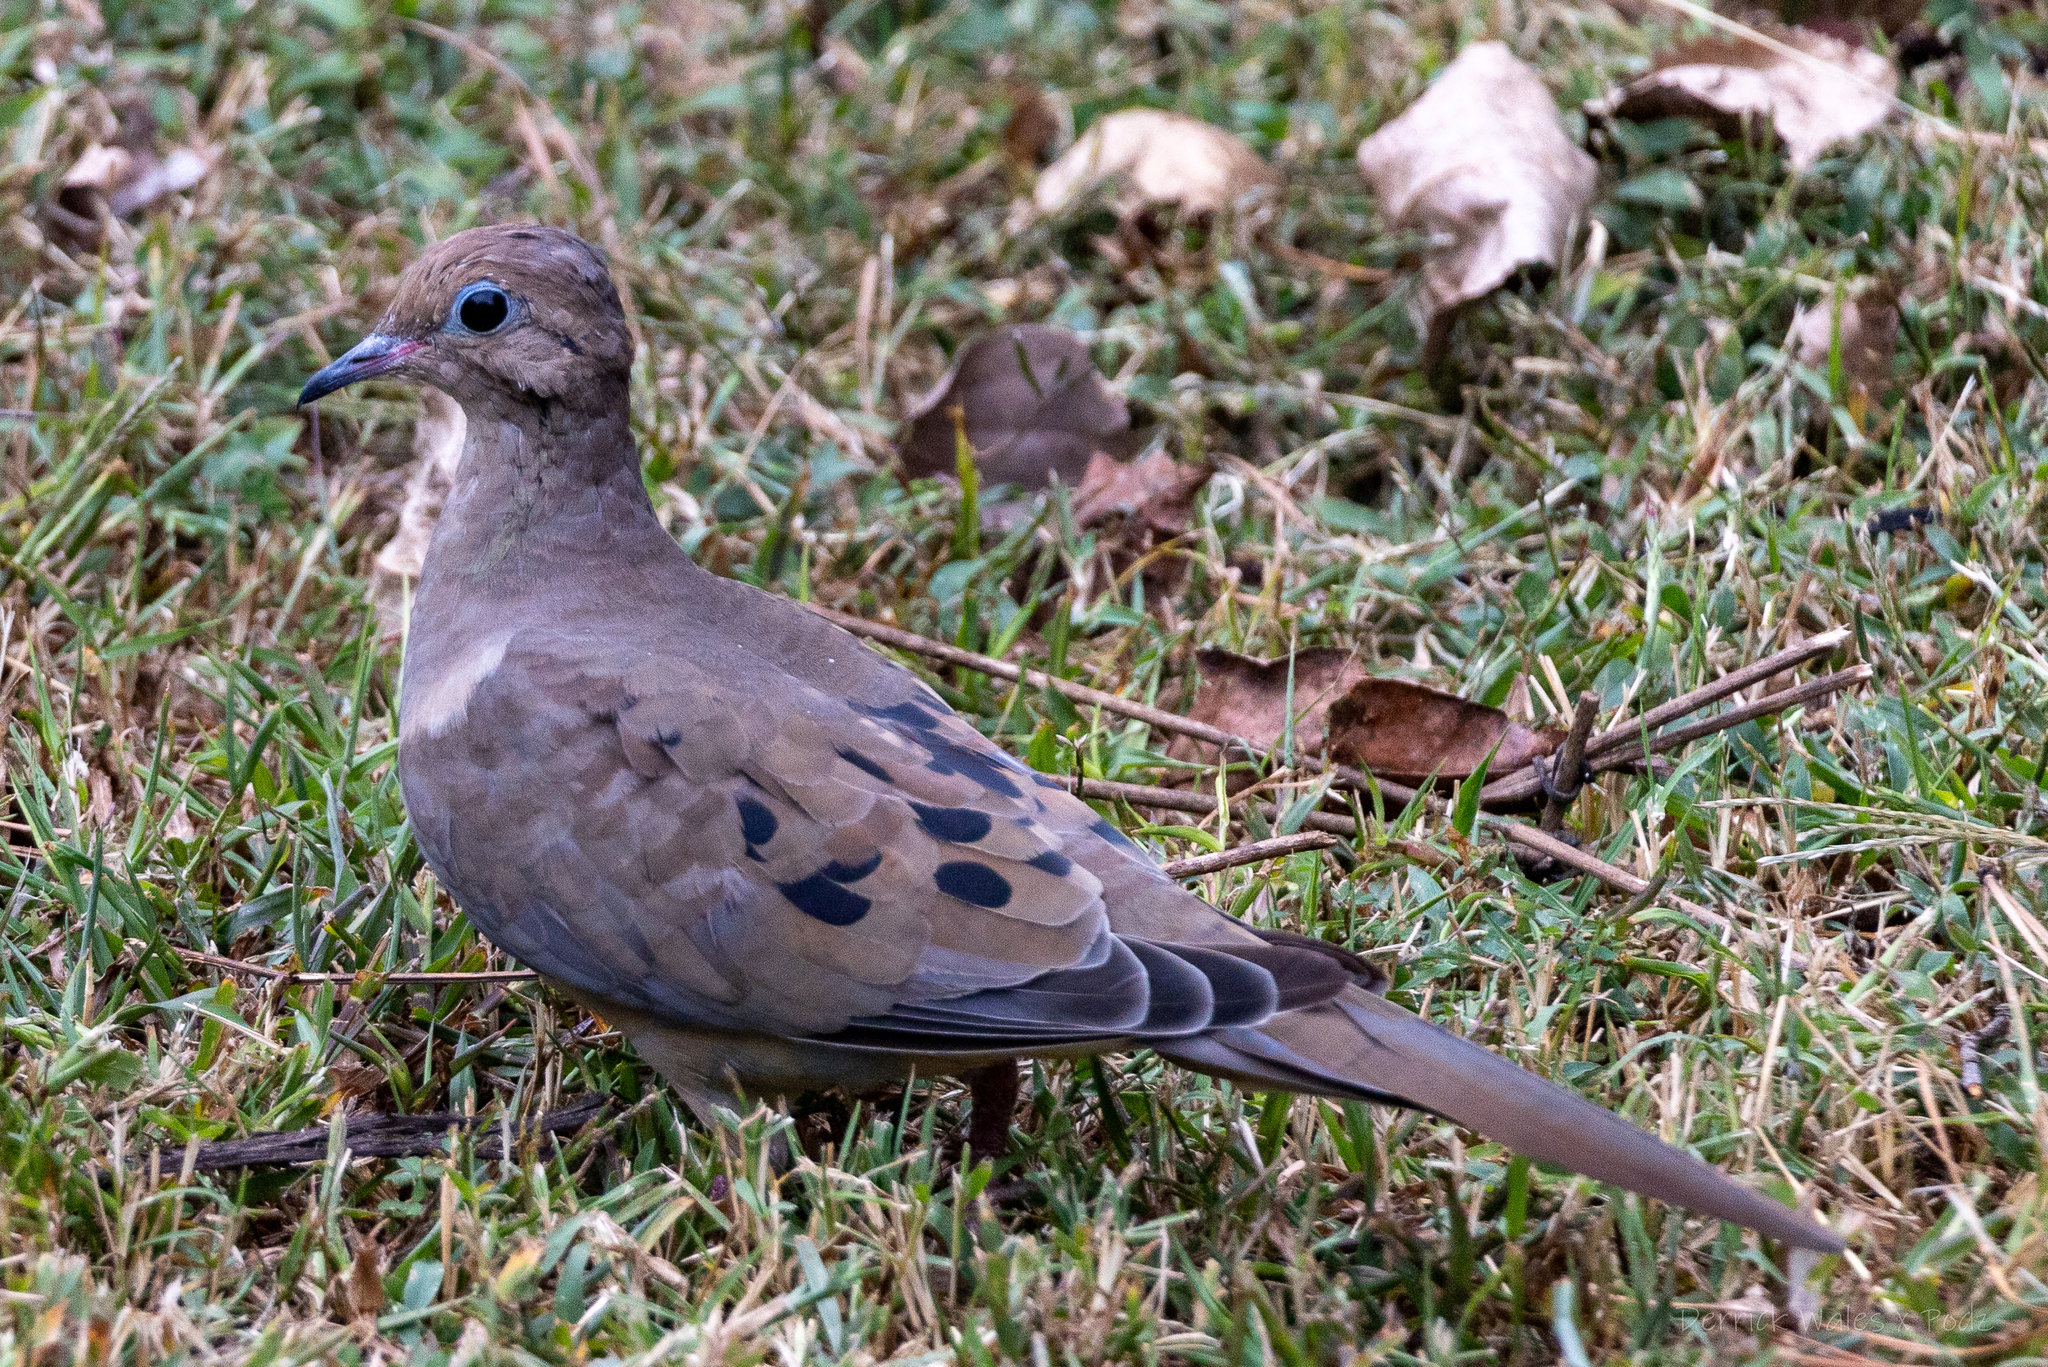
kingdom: Animalia
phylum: Chordata
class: Aves
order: Columbiformes
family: Columbidae
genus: Zenaida
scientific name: Zenaida macroura
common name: Mourning dove
